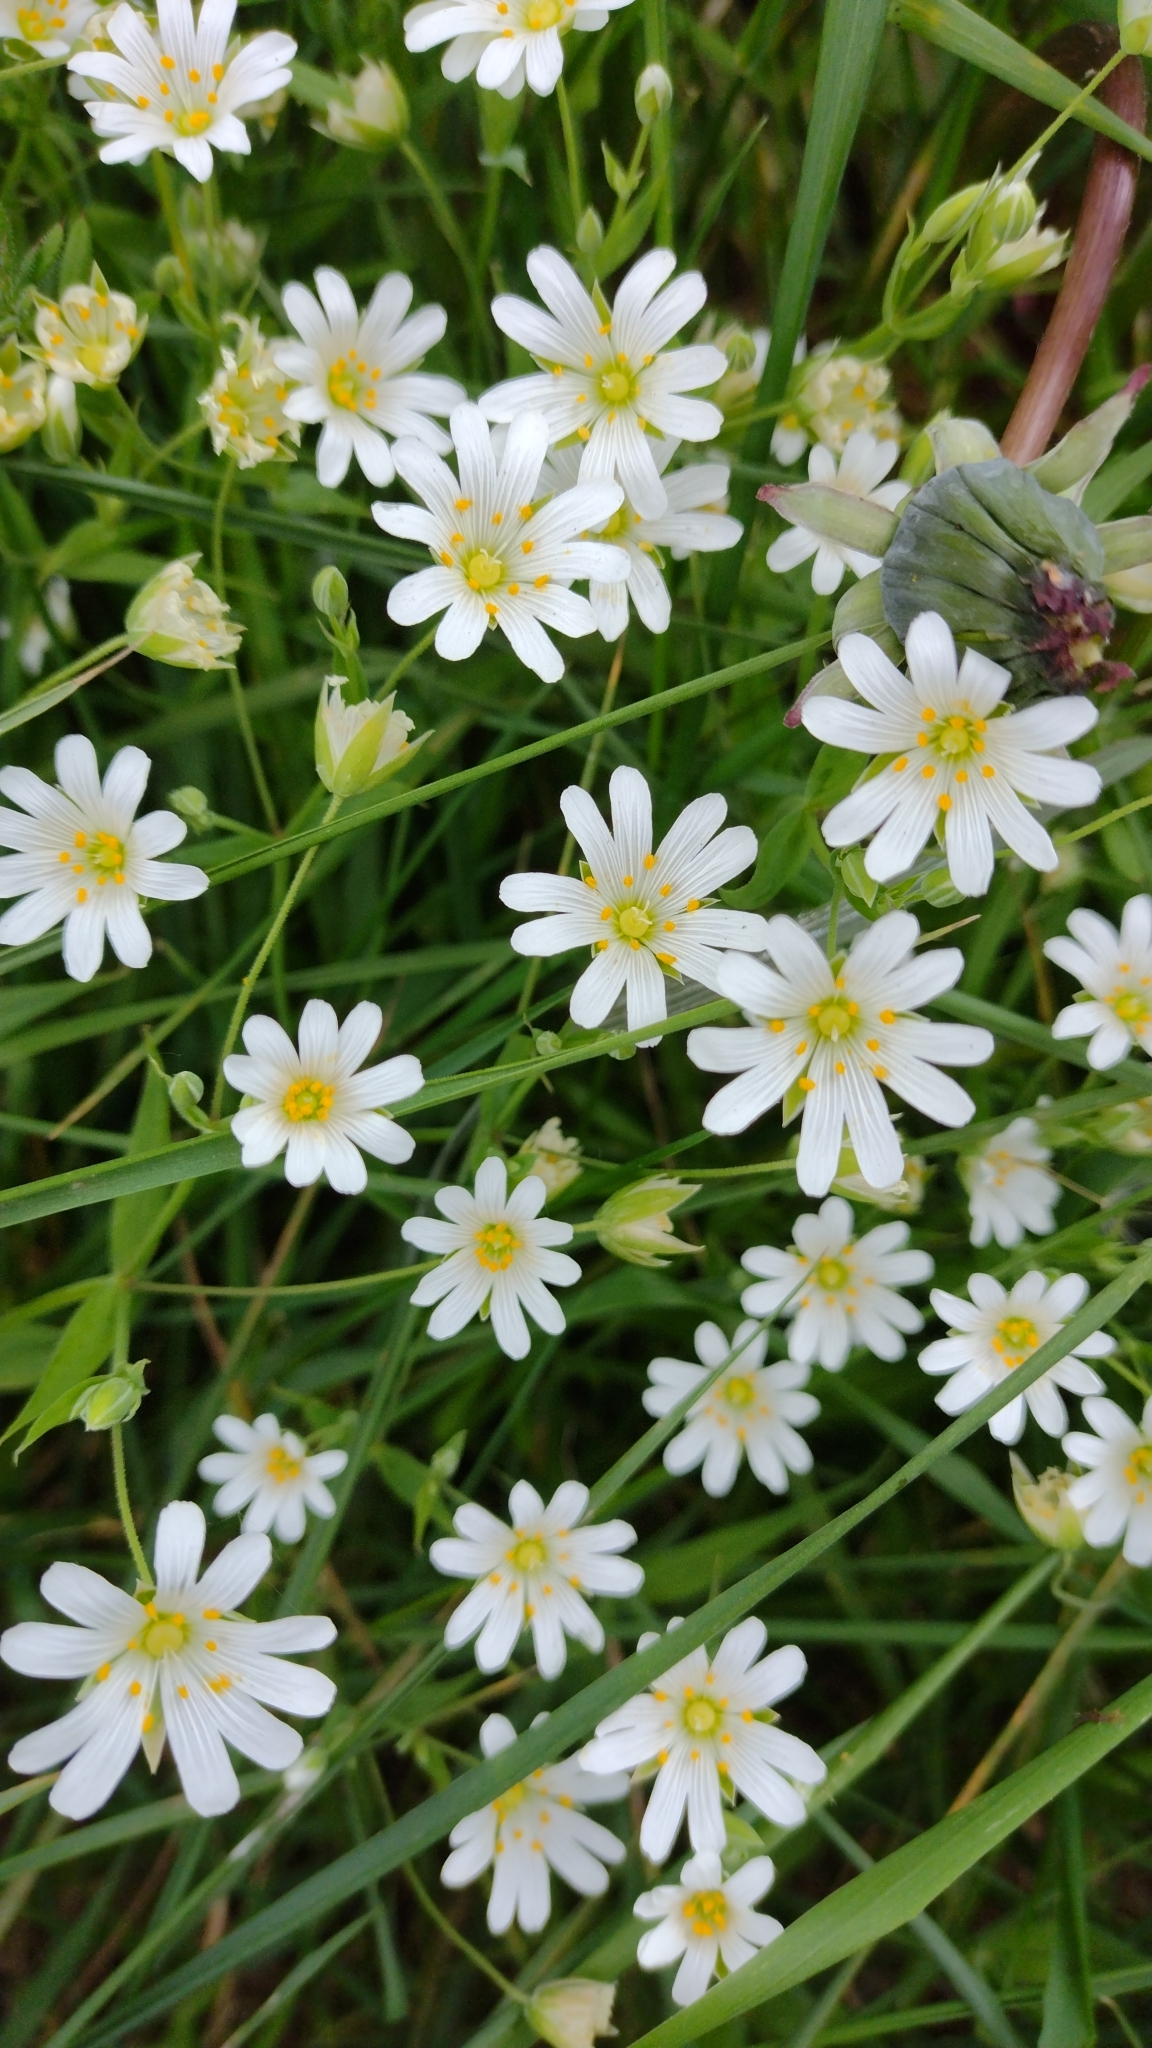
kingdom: Plantae
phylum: Tracheophyta
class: Magnoliopsida
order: Caryophyllales
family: Caryophyllaceae
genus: Rabelera
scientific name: Rabelera holostea
